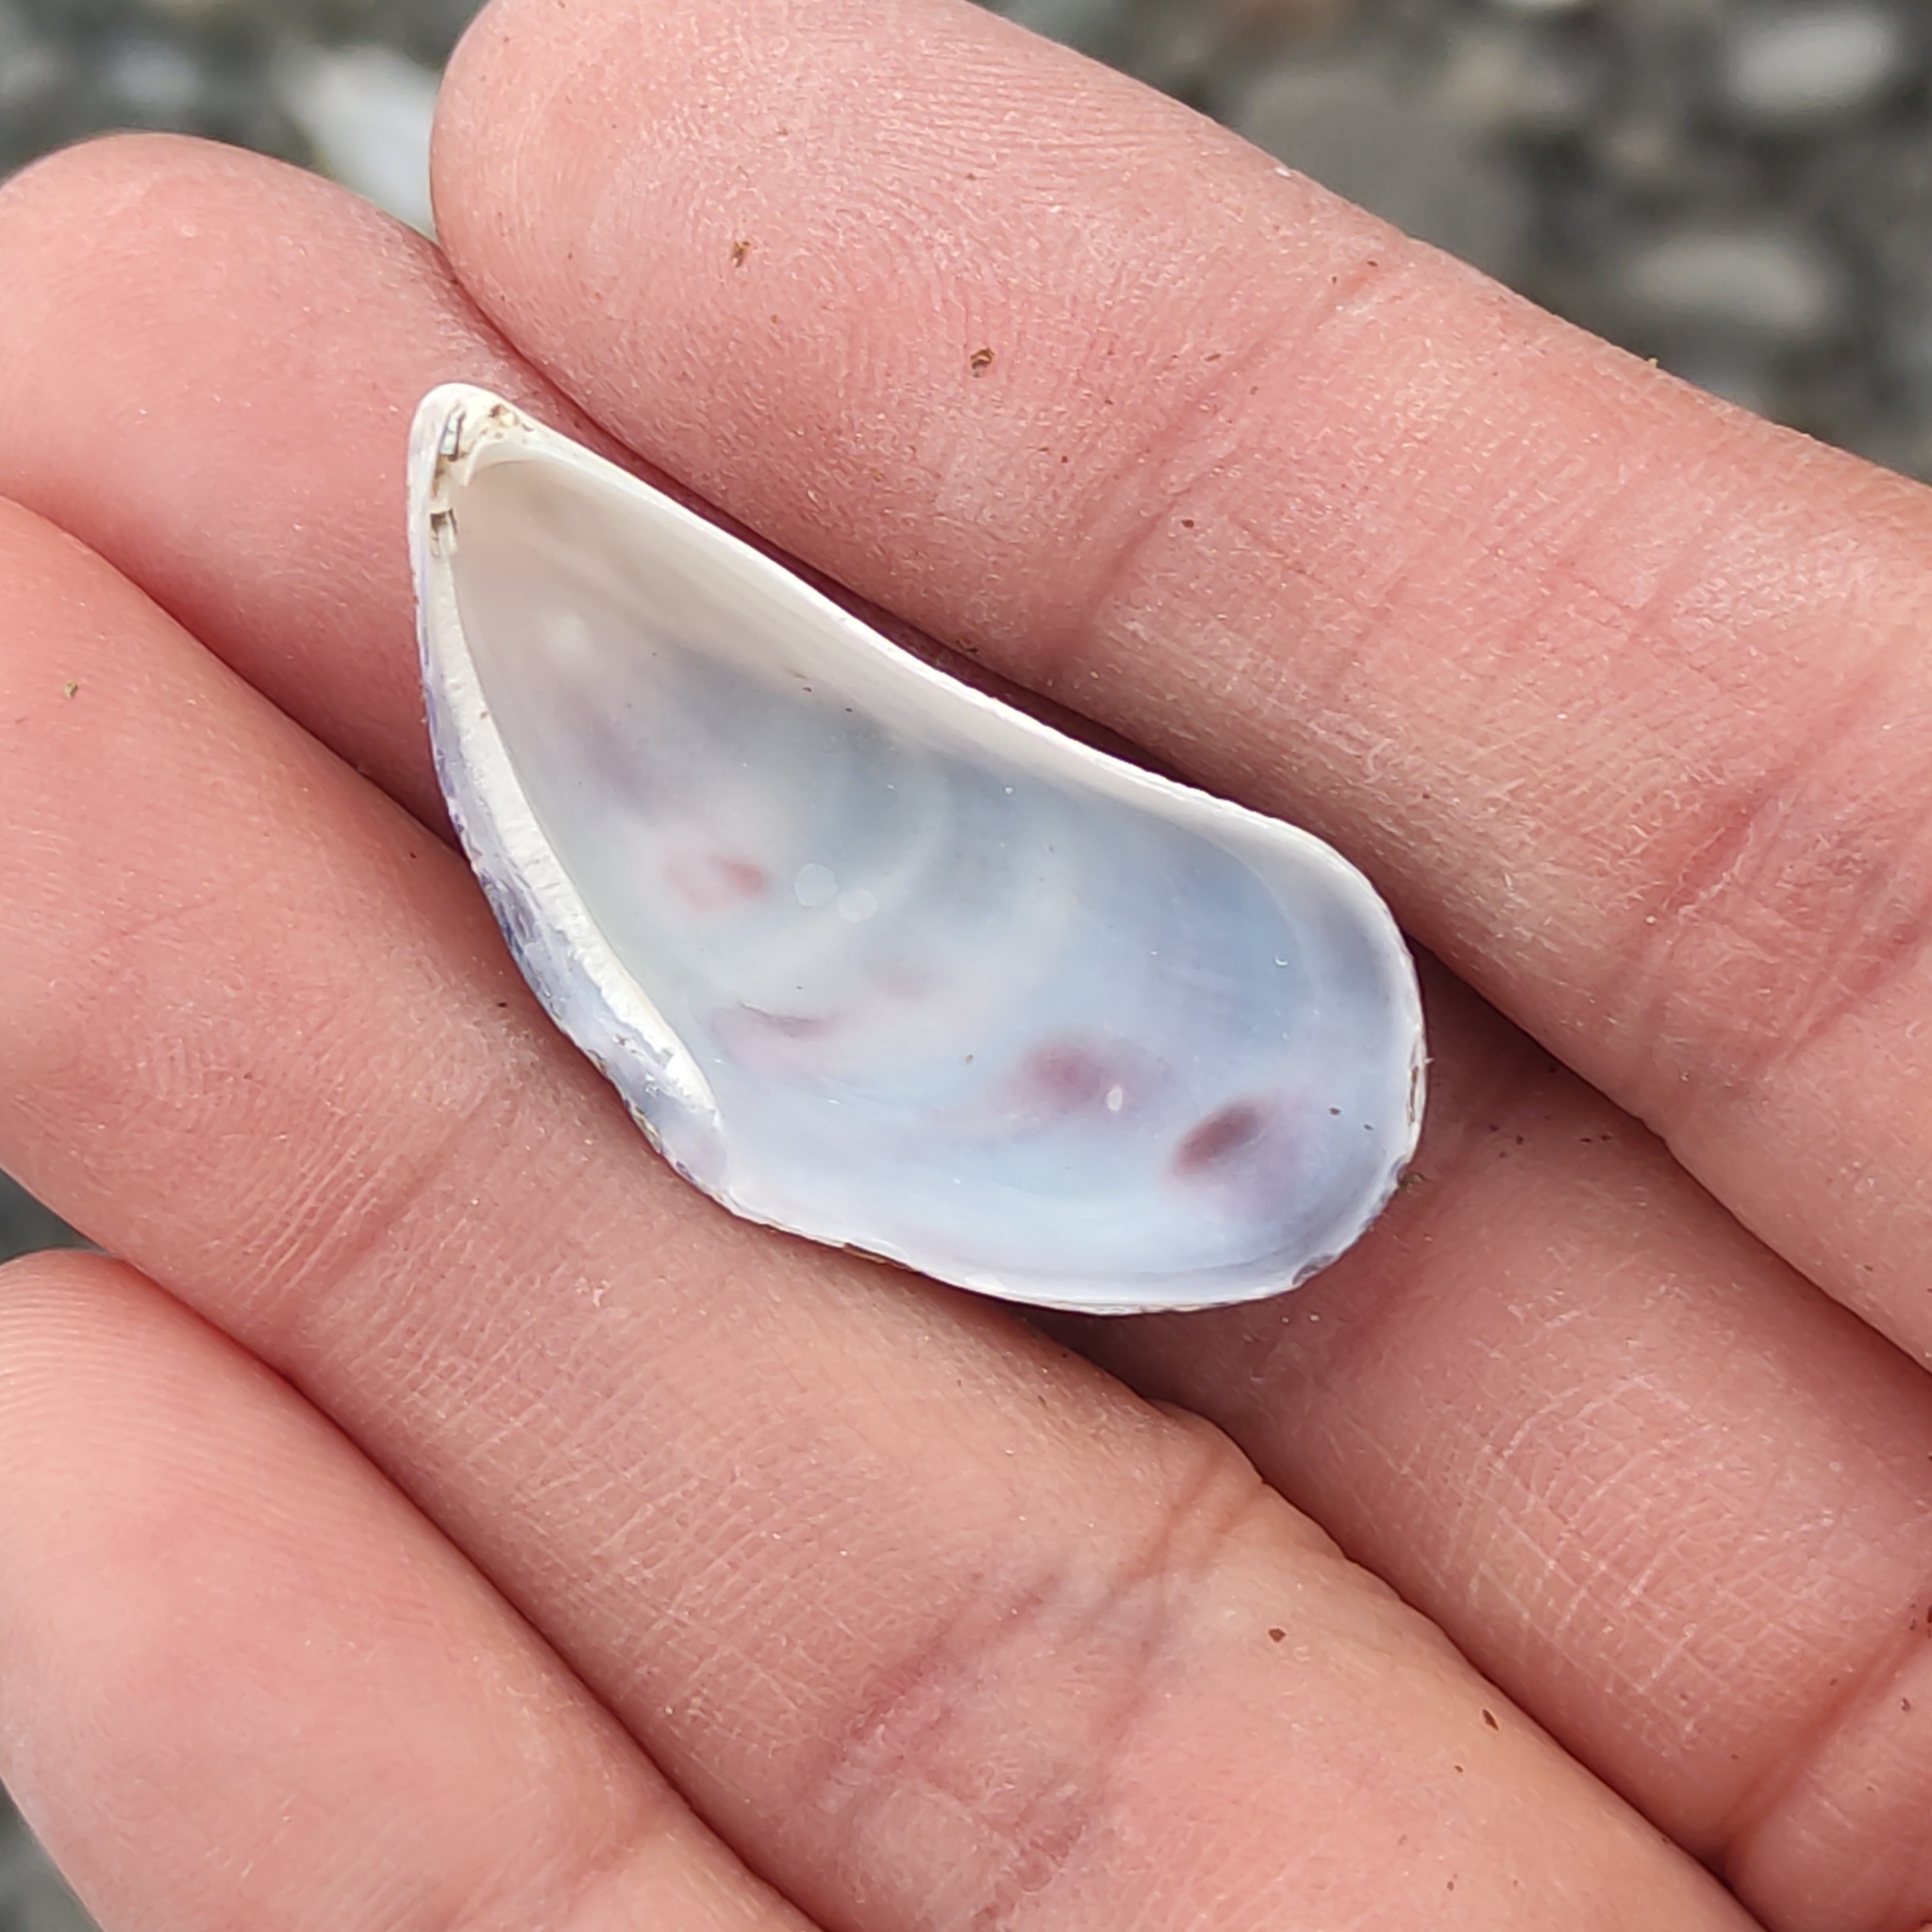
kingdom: Animalia
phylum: Mollusca
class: Bivalvia
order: Mytilida
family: Mytilidae
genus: Aulacomya
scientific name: Aulacomya maoriana
